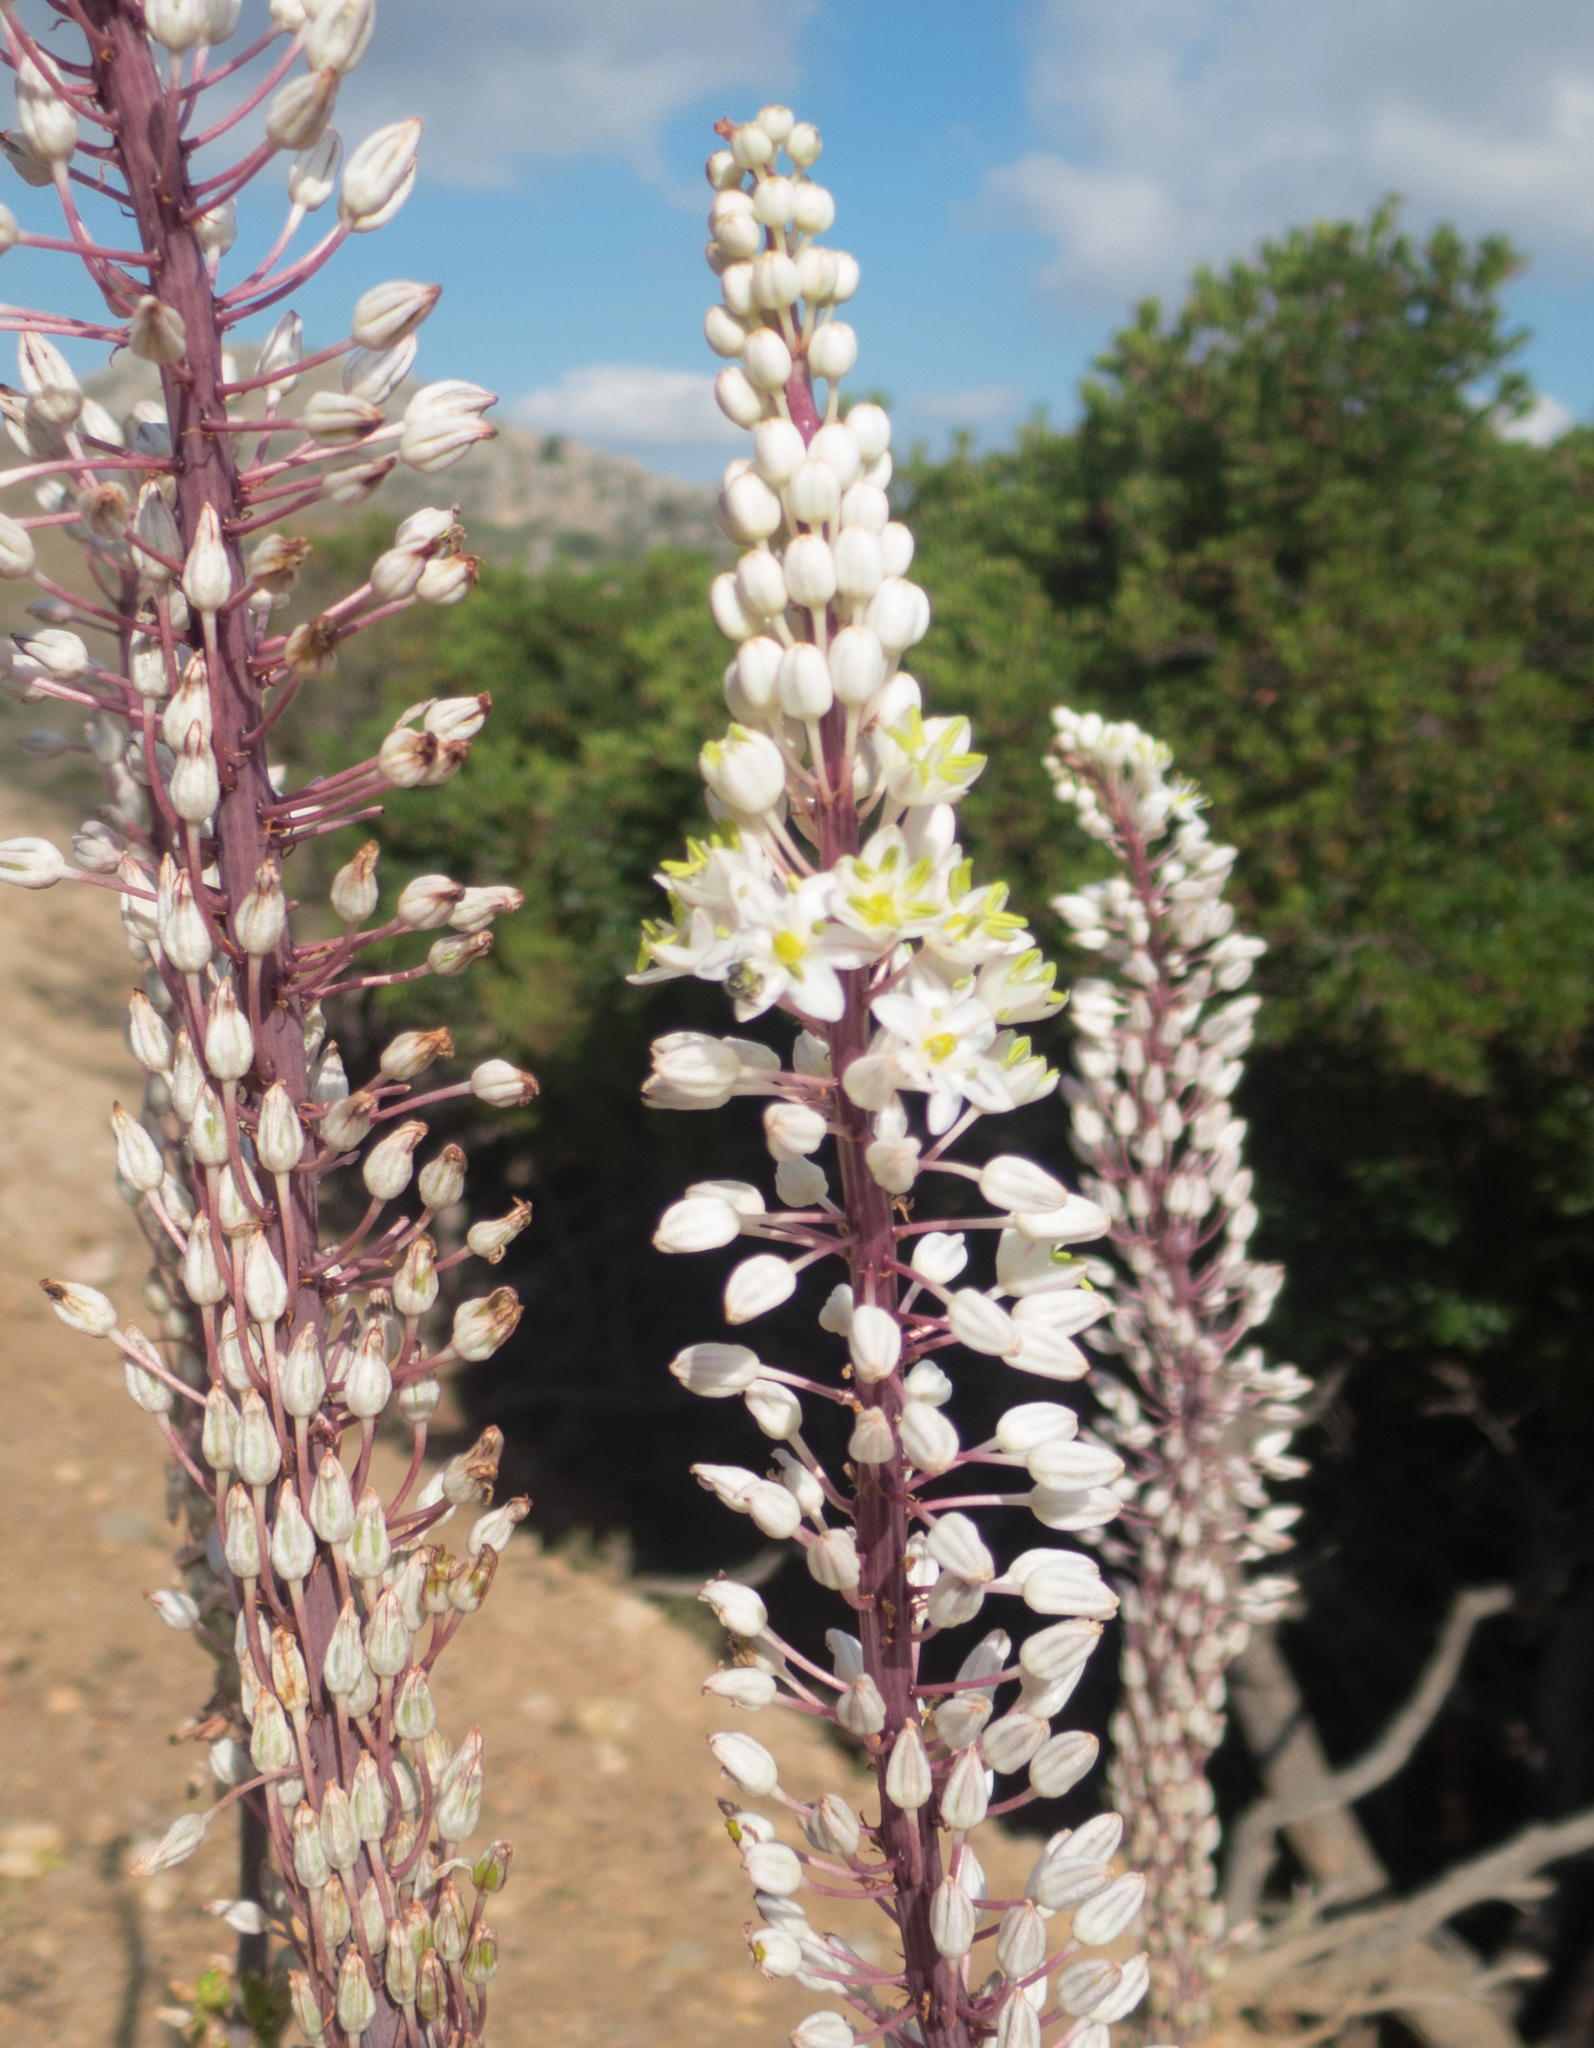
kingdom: Plantae
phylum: Tracheophyta
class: Liliopsida
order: Asparagales
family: Asparagaceae
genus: Drimia
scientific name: Drimia numidica
